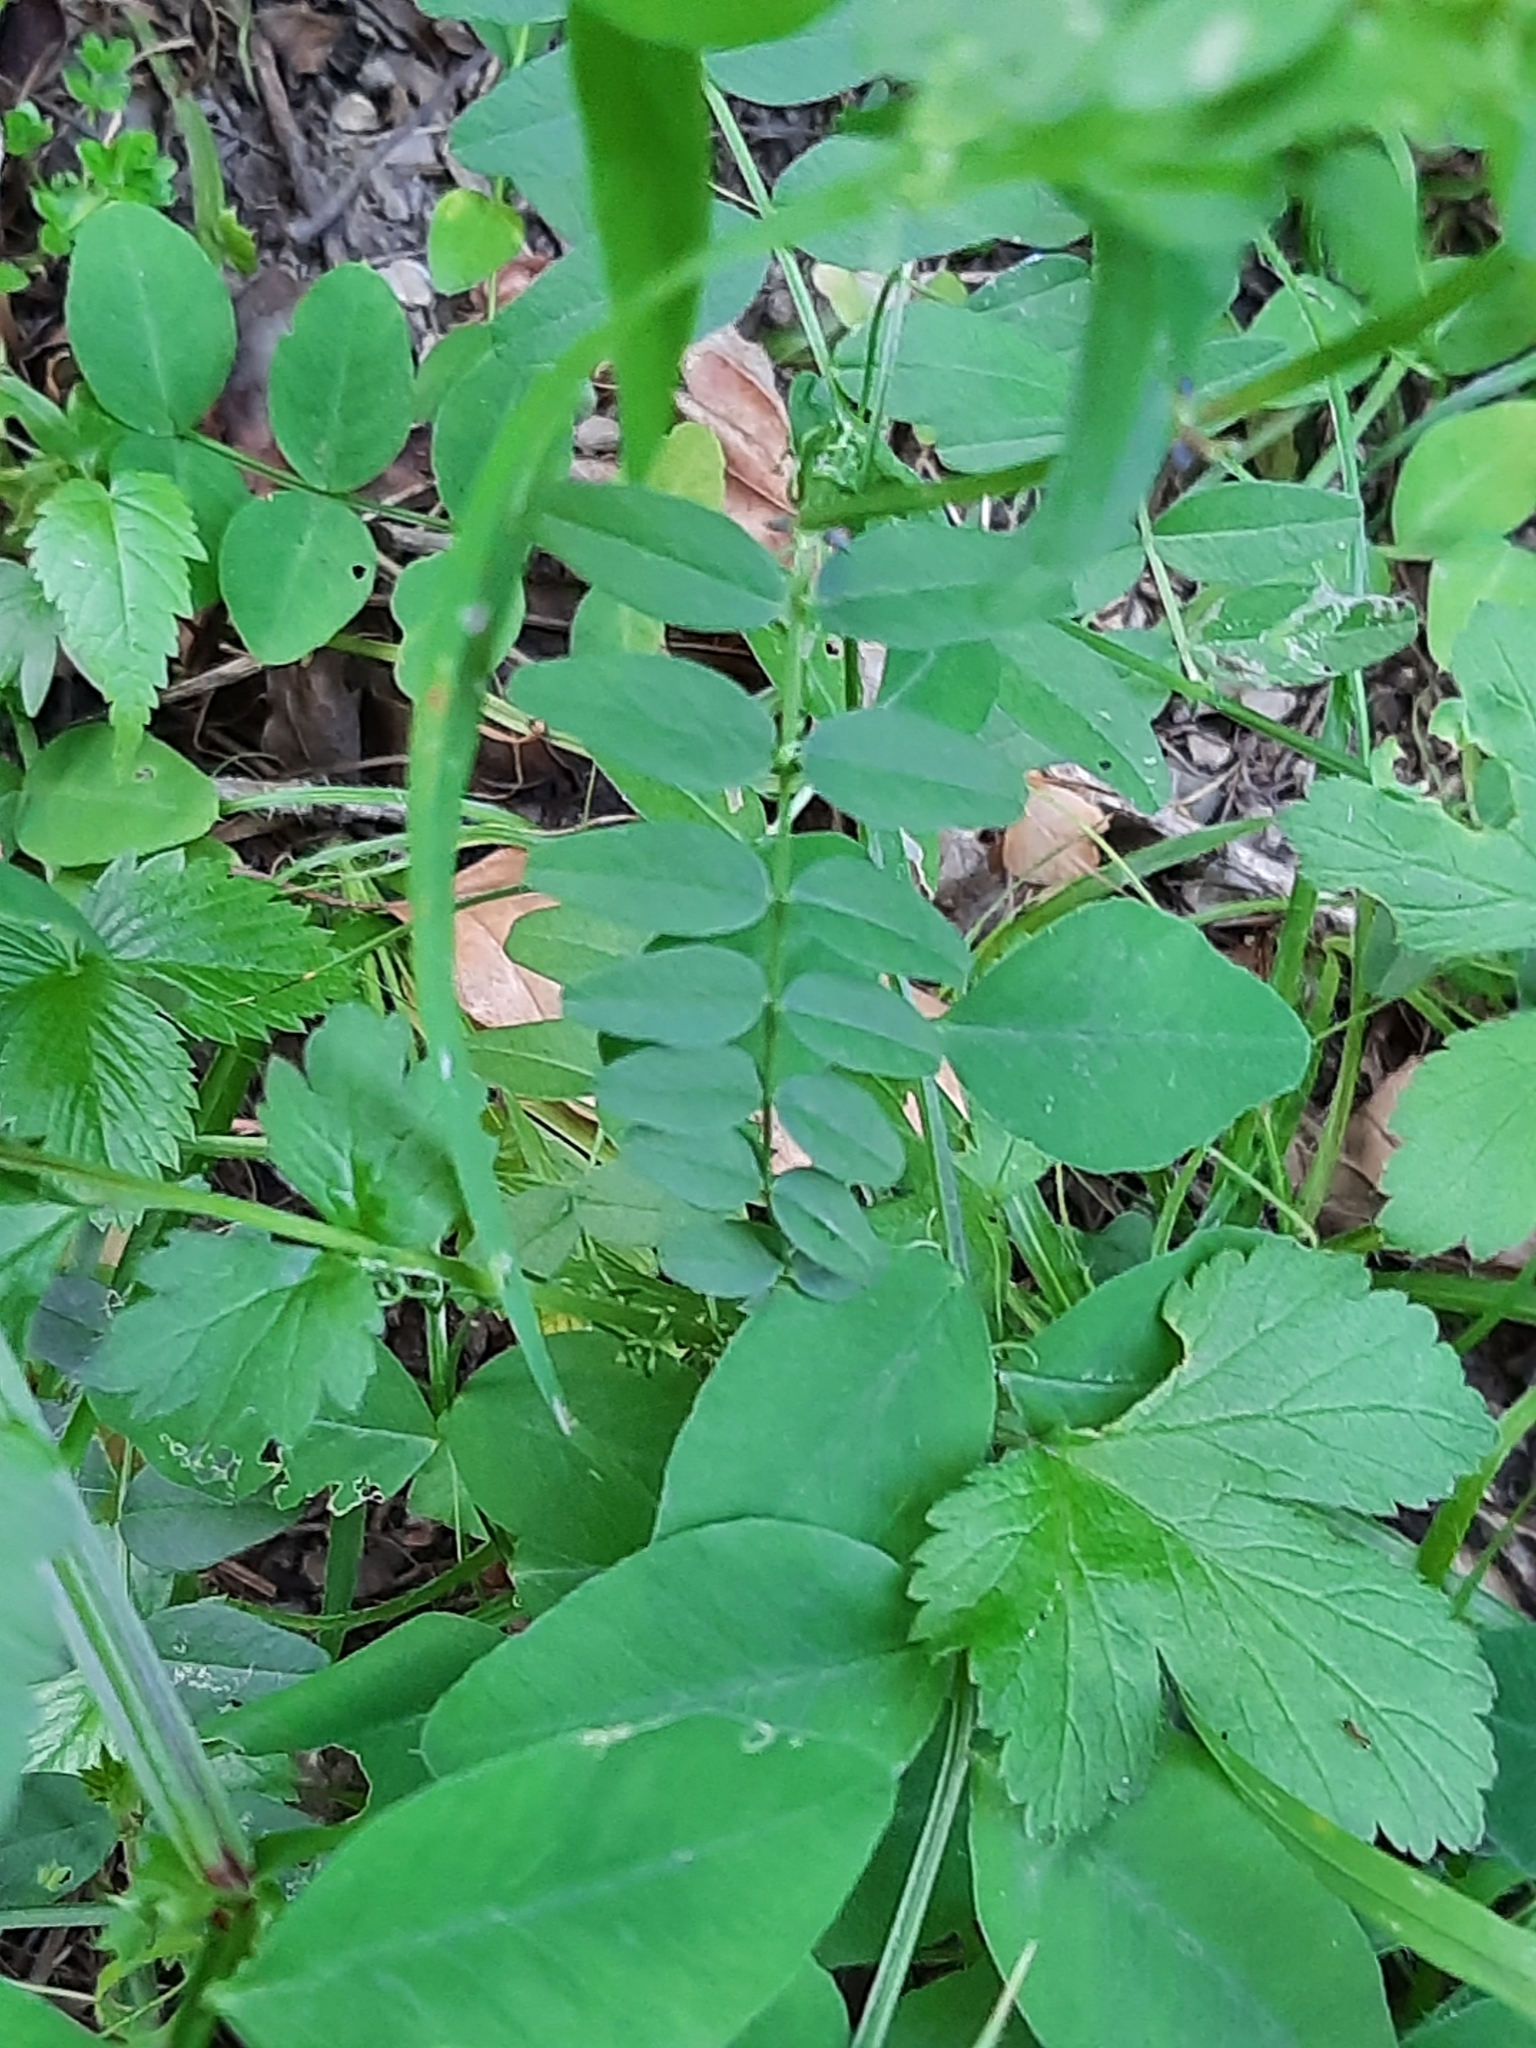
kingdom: Plantae
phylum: Tracheophyta
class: Magnoliopsida
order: Fabales
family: Fabaceae
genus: Vicia
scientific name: Vicia sepium
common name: Bush vetch
